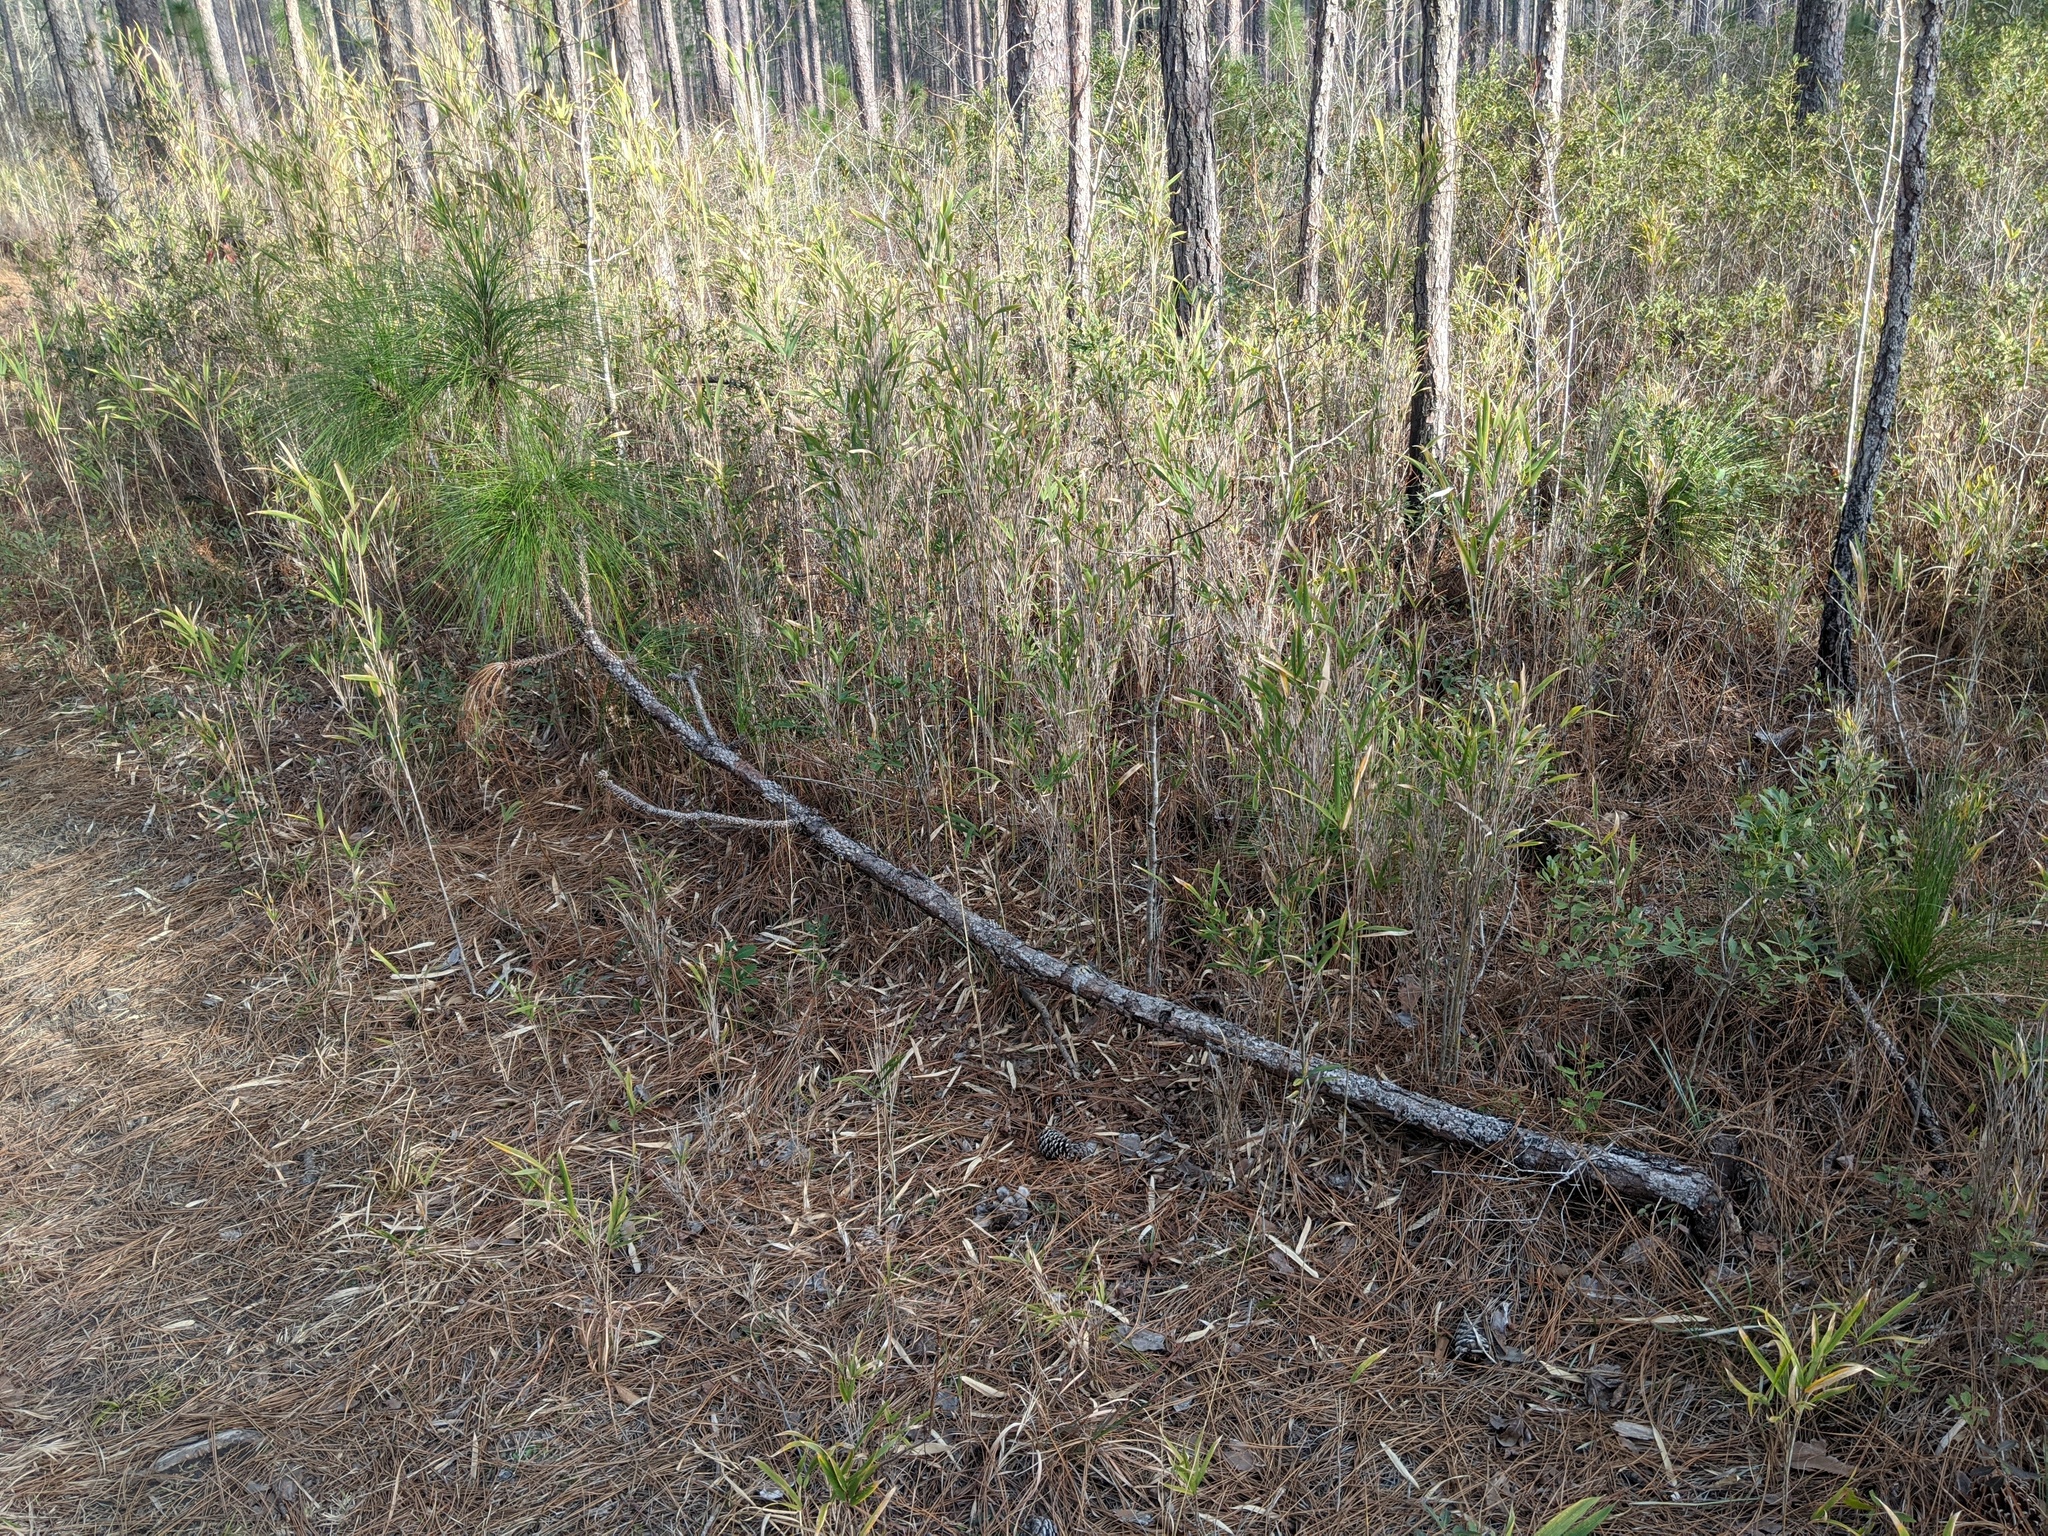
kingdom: Plantae
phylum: Tracheophyta
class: Pinopsida
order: Pinales
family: Pinaceae
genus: Pinus
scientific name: Pinus palustris
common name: Longleaf pine
